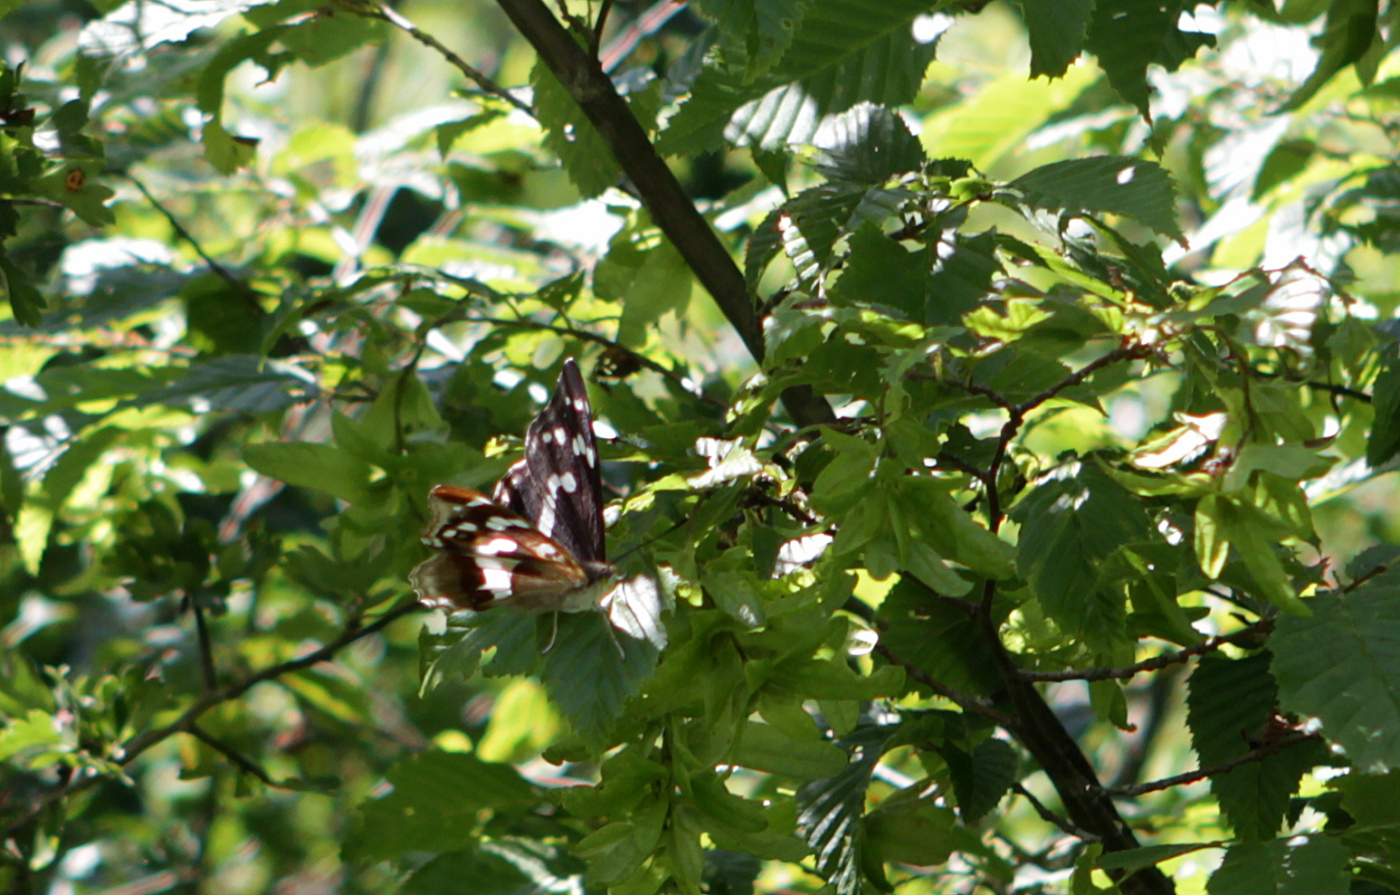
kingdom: Animalia
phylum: Arthropoda
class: Insecta
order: Lepidoptera
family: Nymphalidae
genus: Apatura
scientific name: Apatura iris
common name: Purple emperor
